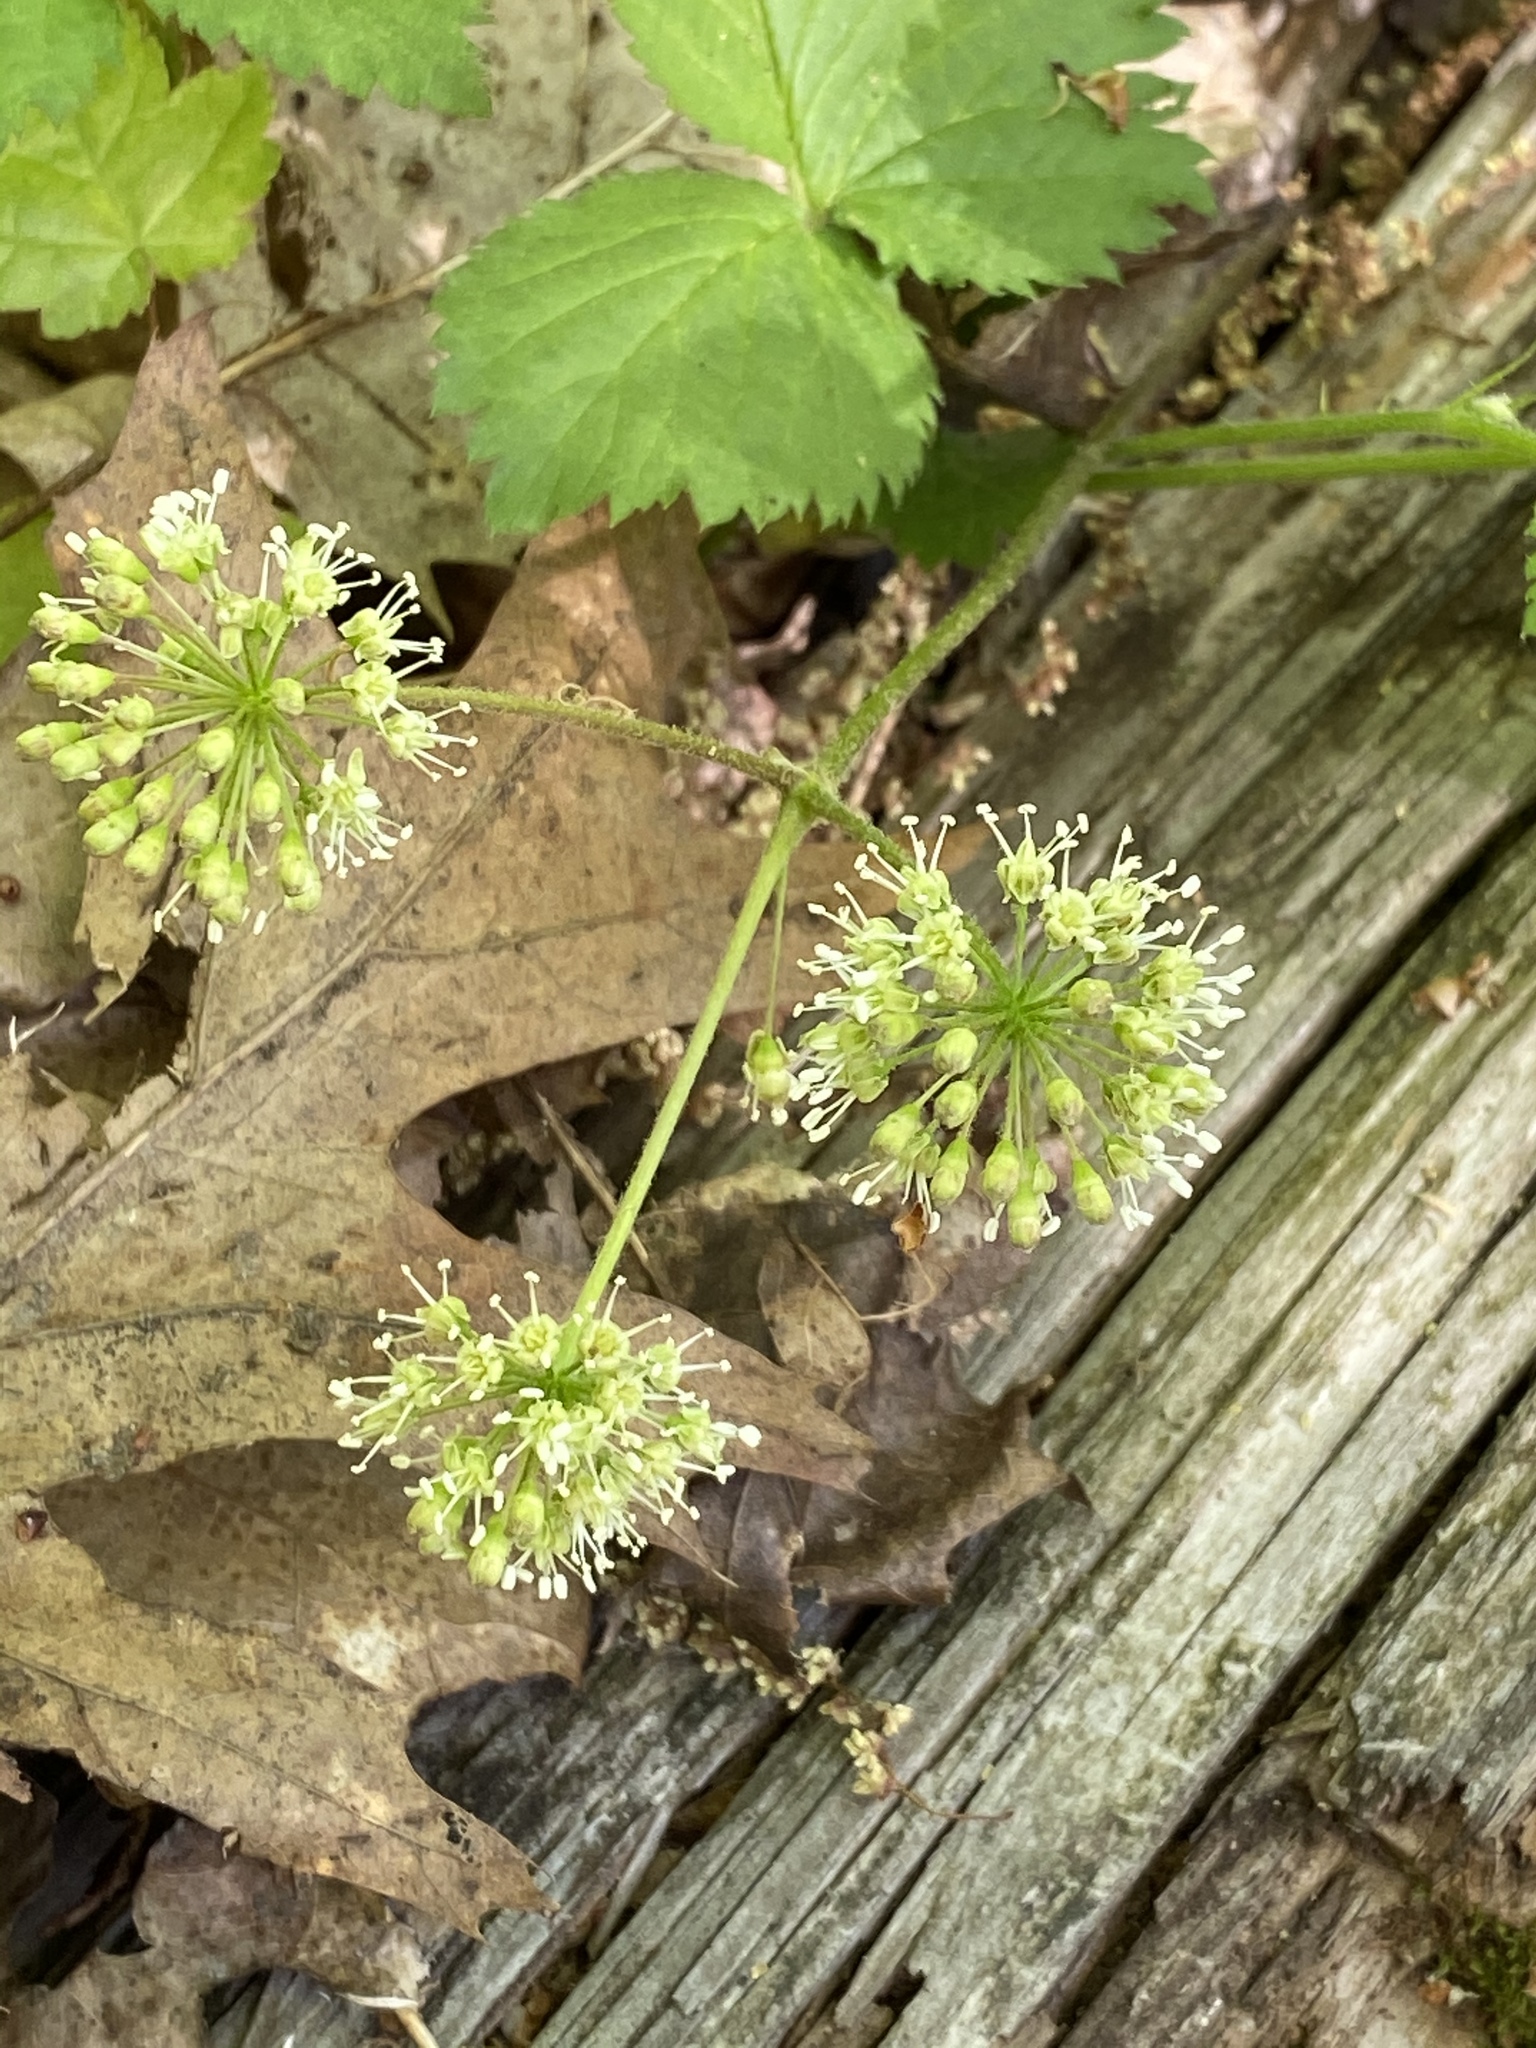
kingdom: Plantae
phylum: Tracheophyta
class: Magnoliopsida
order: Apiales
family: Araliaceae
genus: Aralia
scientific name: Aralia nudicaulis
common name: Wild sarsaparilla
